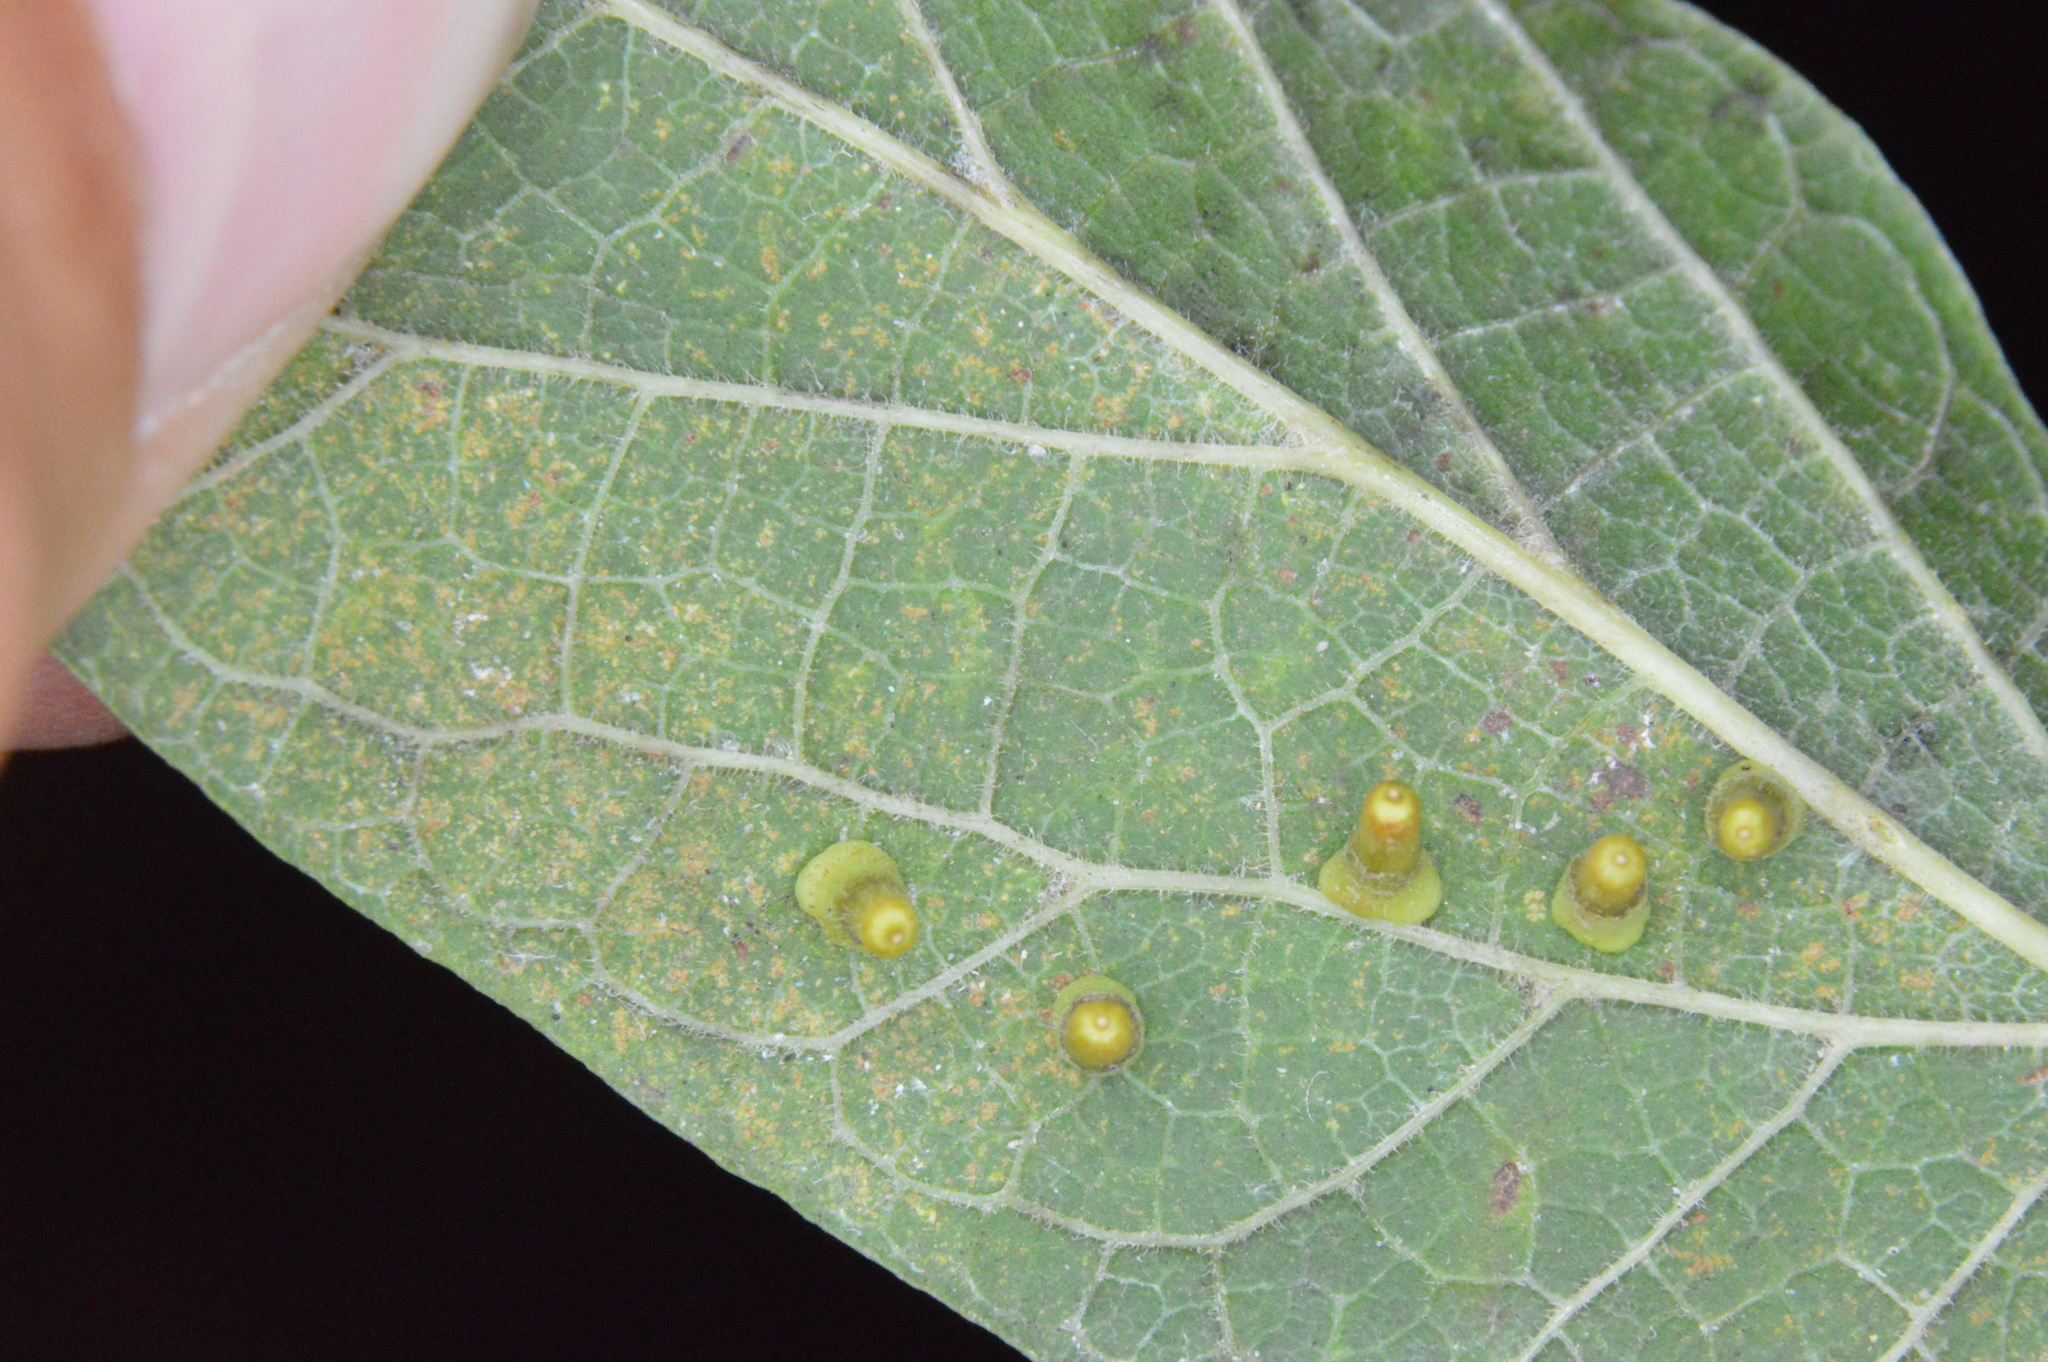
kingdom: Animalia
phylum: Arthropoda
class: Insecta
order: Diptera
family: Cecidomyiidae
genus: Celticecis
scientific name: Celticecis aciculata
